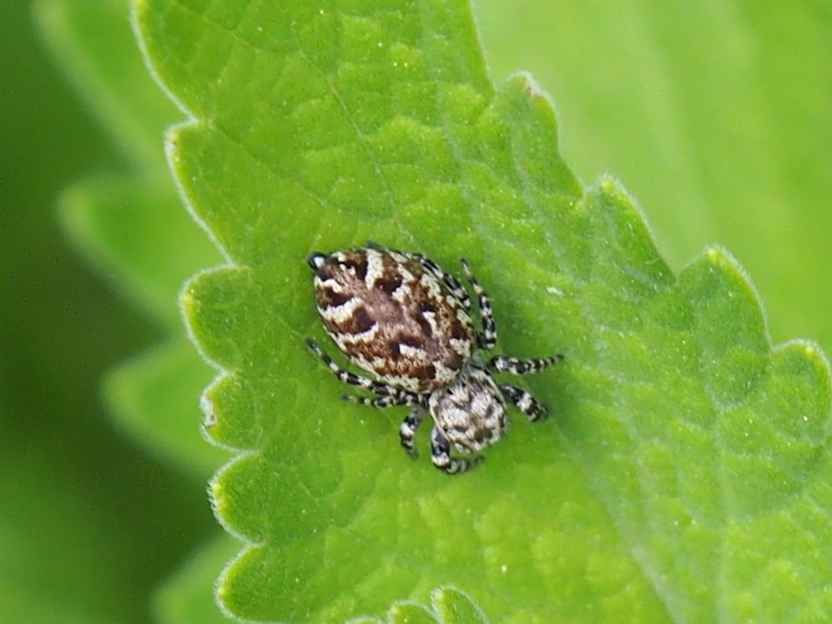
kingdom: Animalia
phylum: Arthropoda
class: Arachnida
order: Araneae
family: Salticidae
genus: Pelegrina
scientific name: Pelegrina galathea
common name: Jumping spiders
